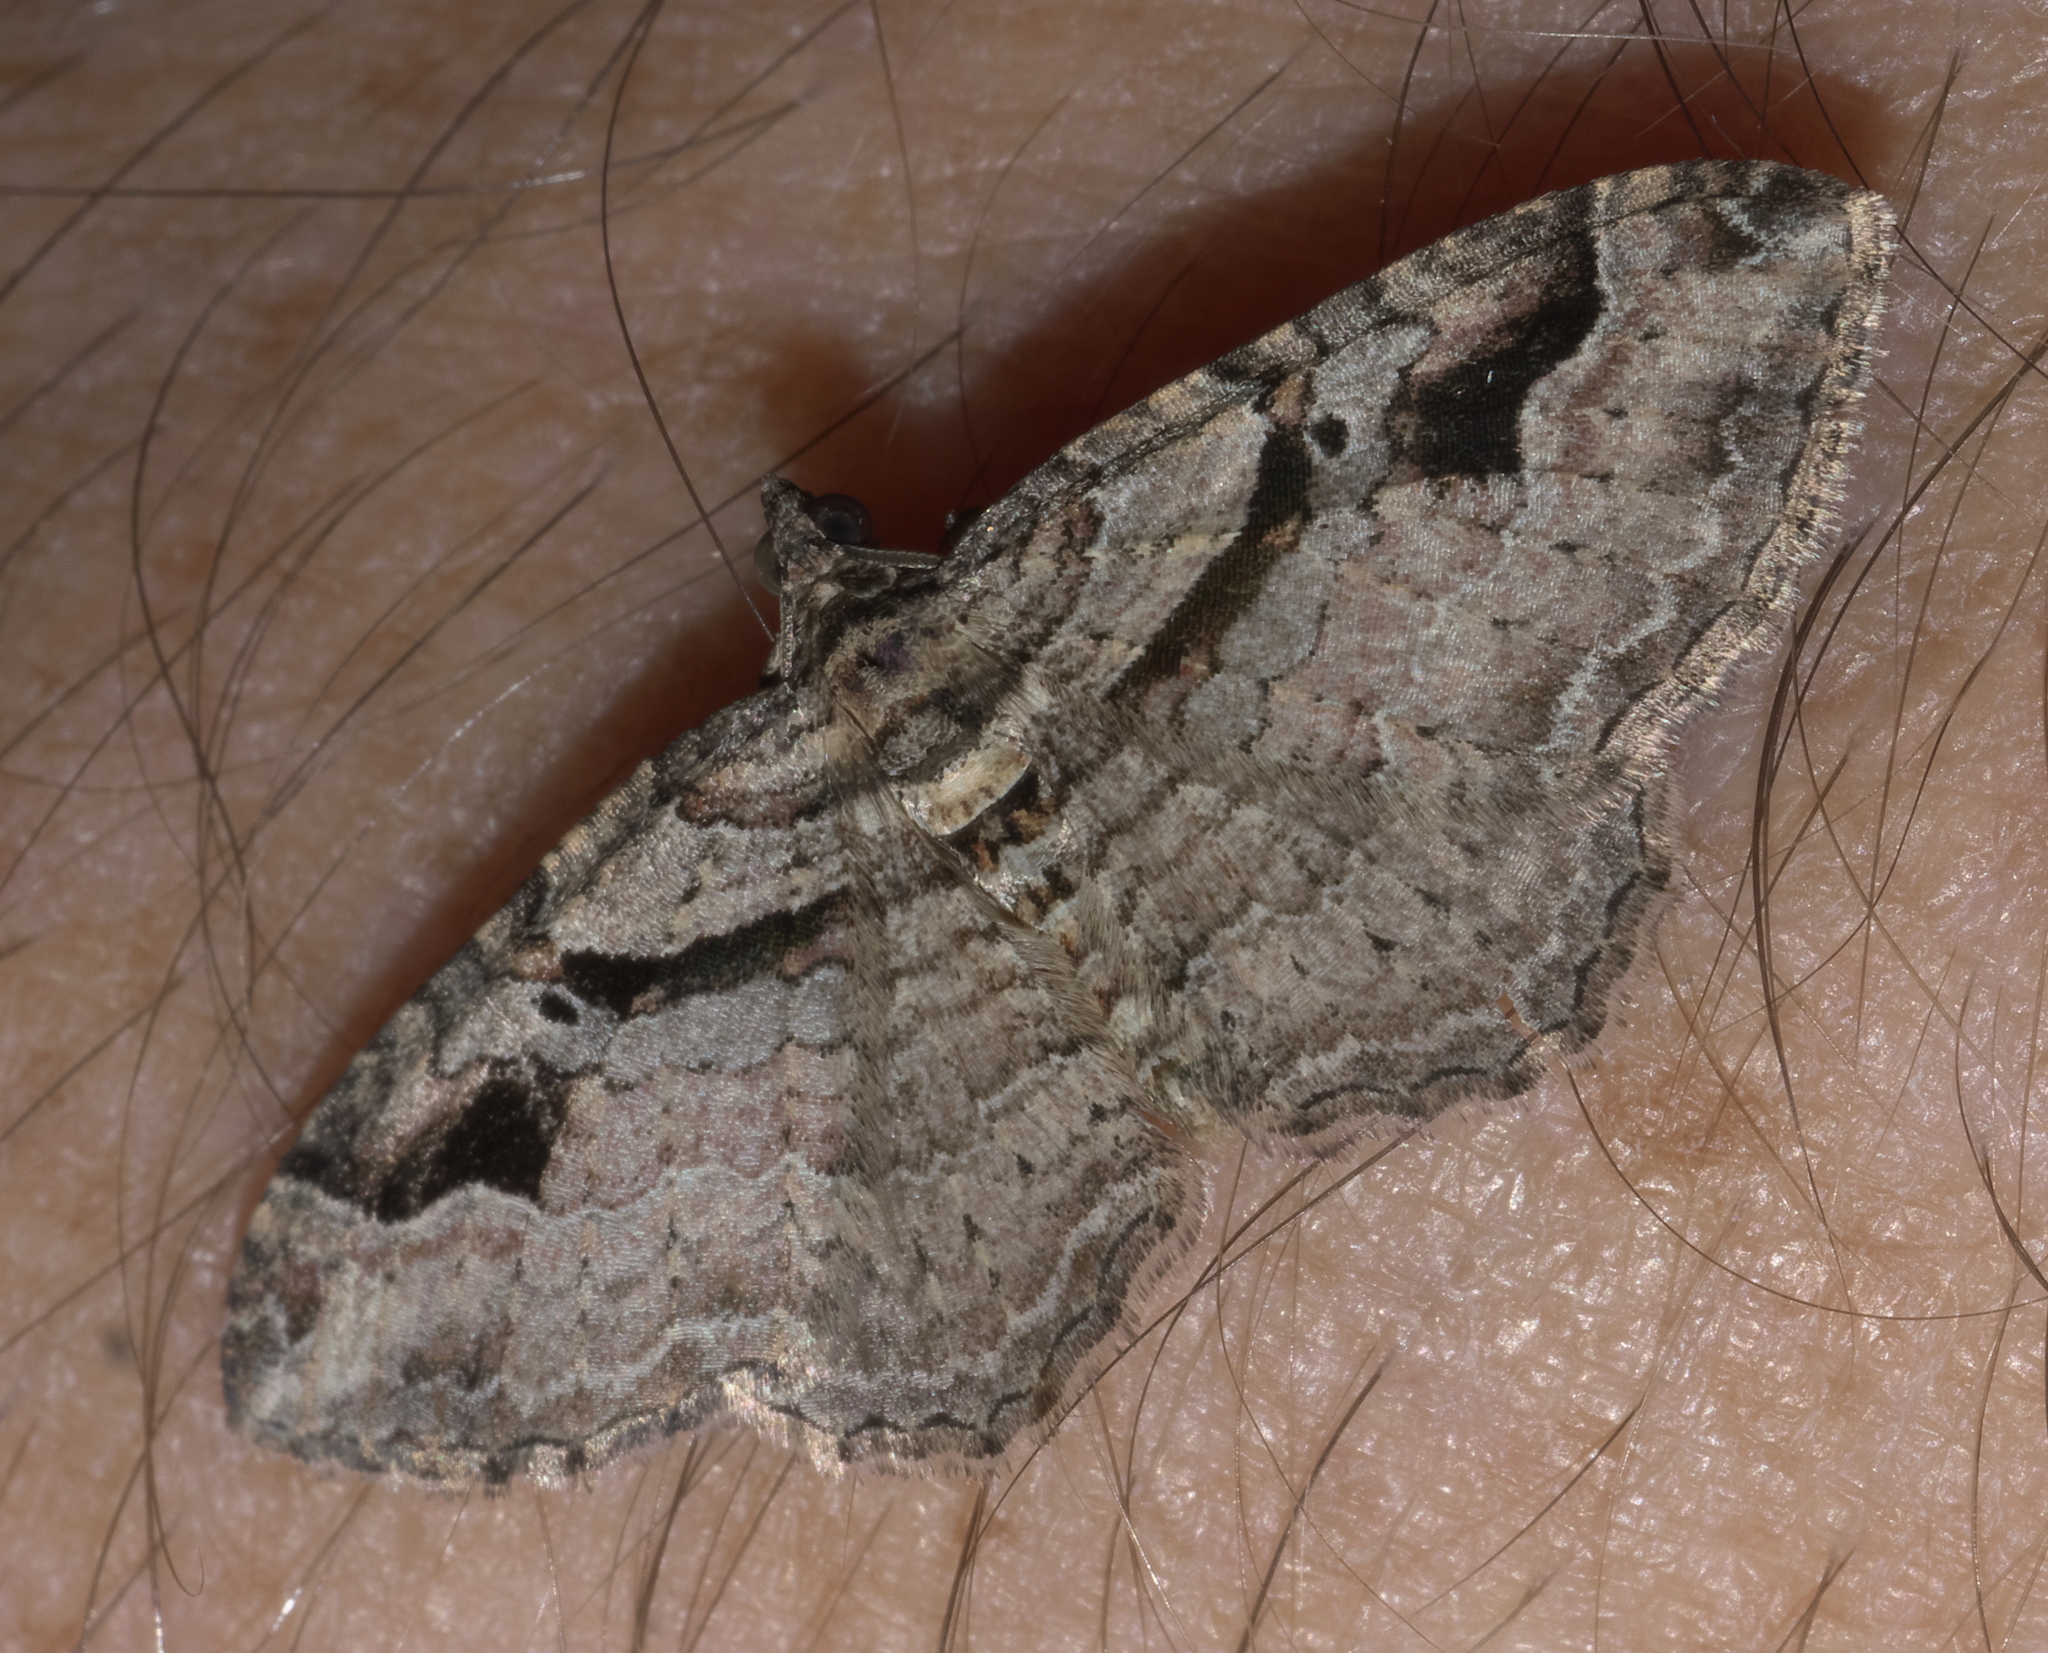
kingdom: Animalia
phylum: Arthropoda
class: Insecta
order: Lepidoptera
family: Geometridae
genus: Costaconvexa
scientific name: Costaconvexa centrostrigaria
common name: Bent-line carpet
